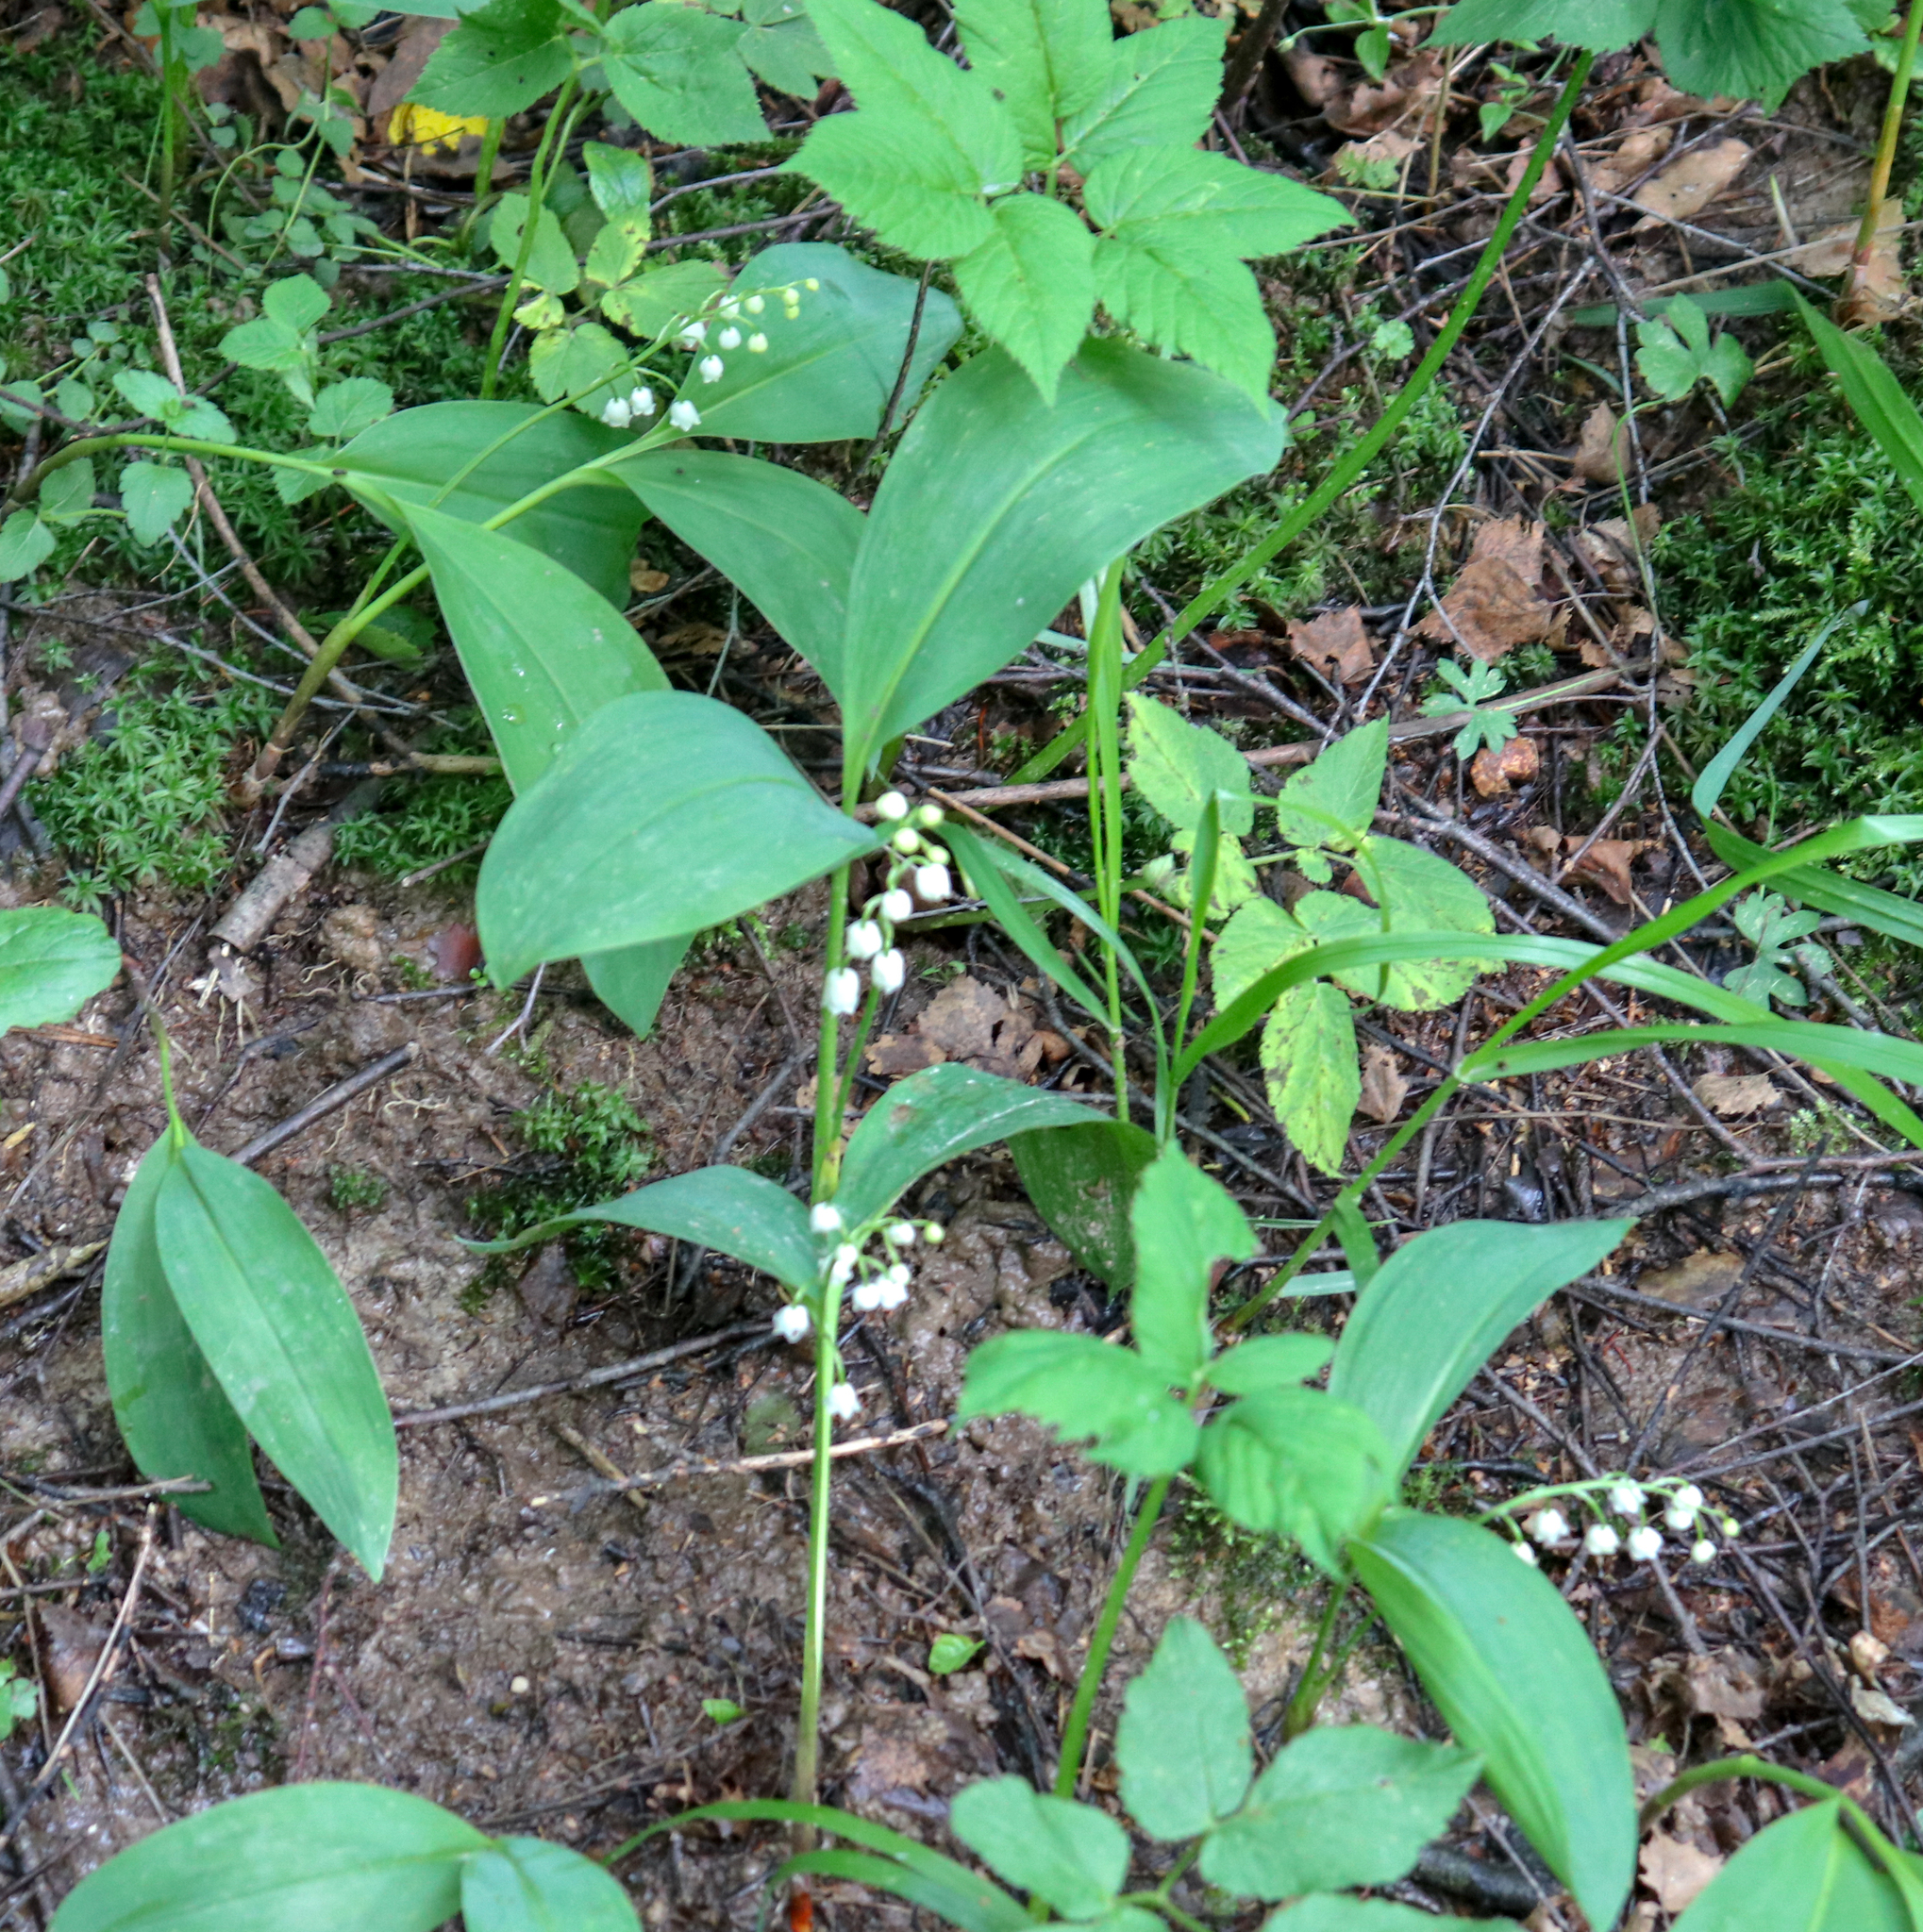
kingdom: Plantae
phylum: Tracheophyta
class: Liliopsida
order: Asparagales
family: Asparagaceae
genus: Convallaria
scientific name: Convallaria majalis
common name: Lily-of-the-valley
